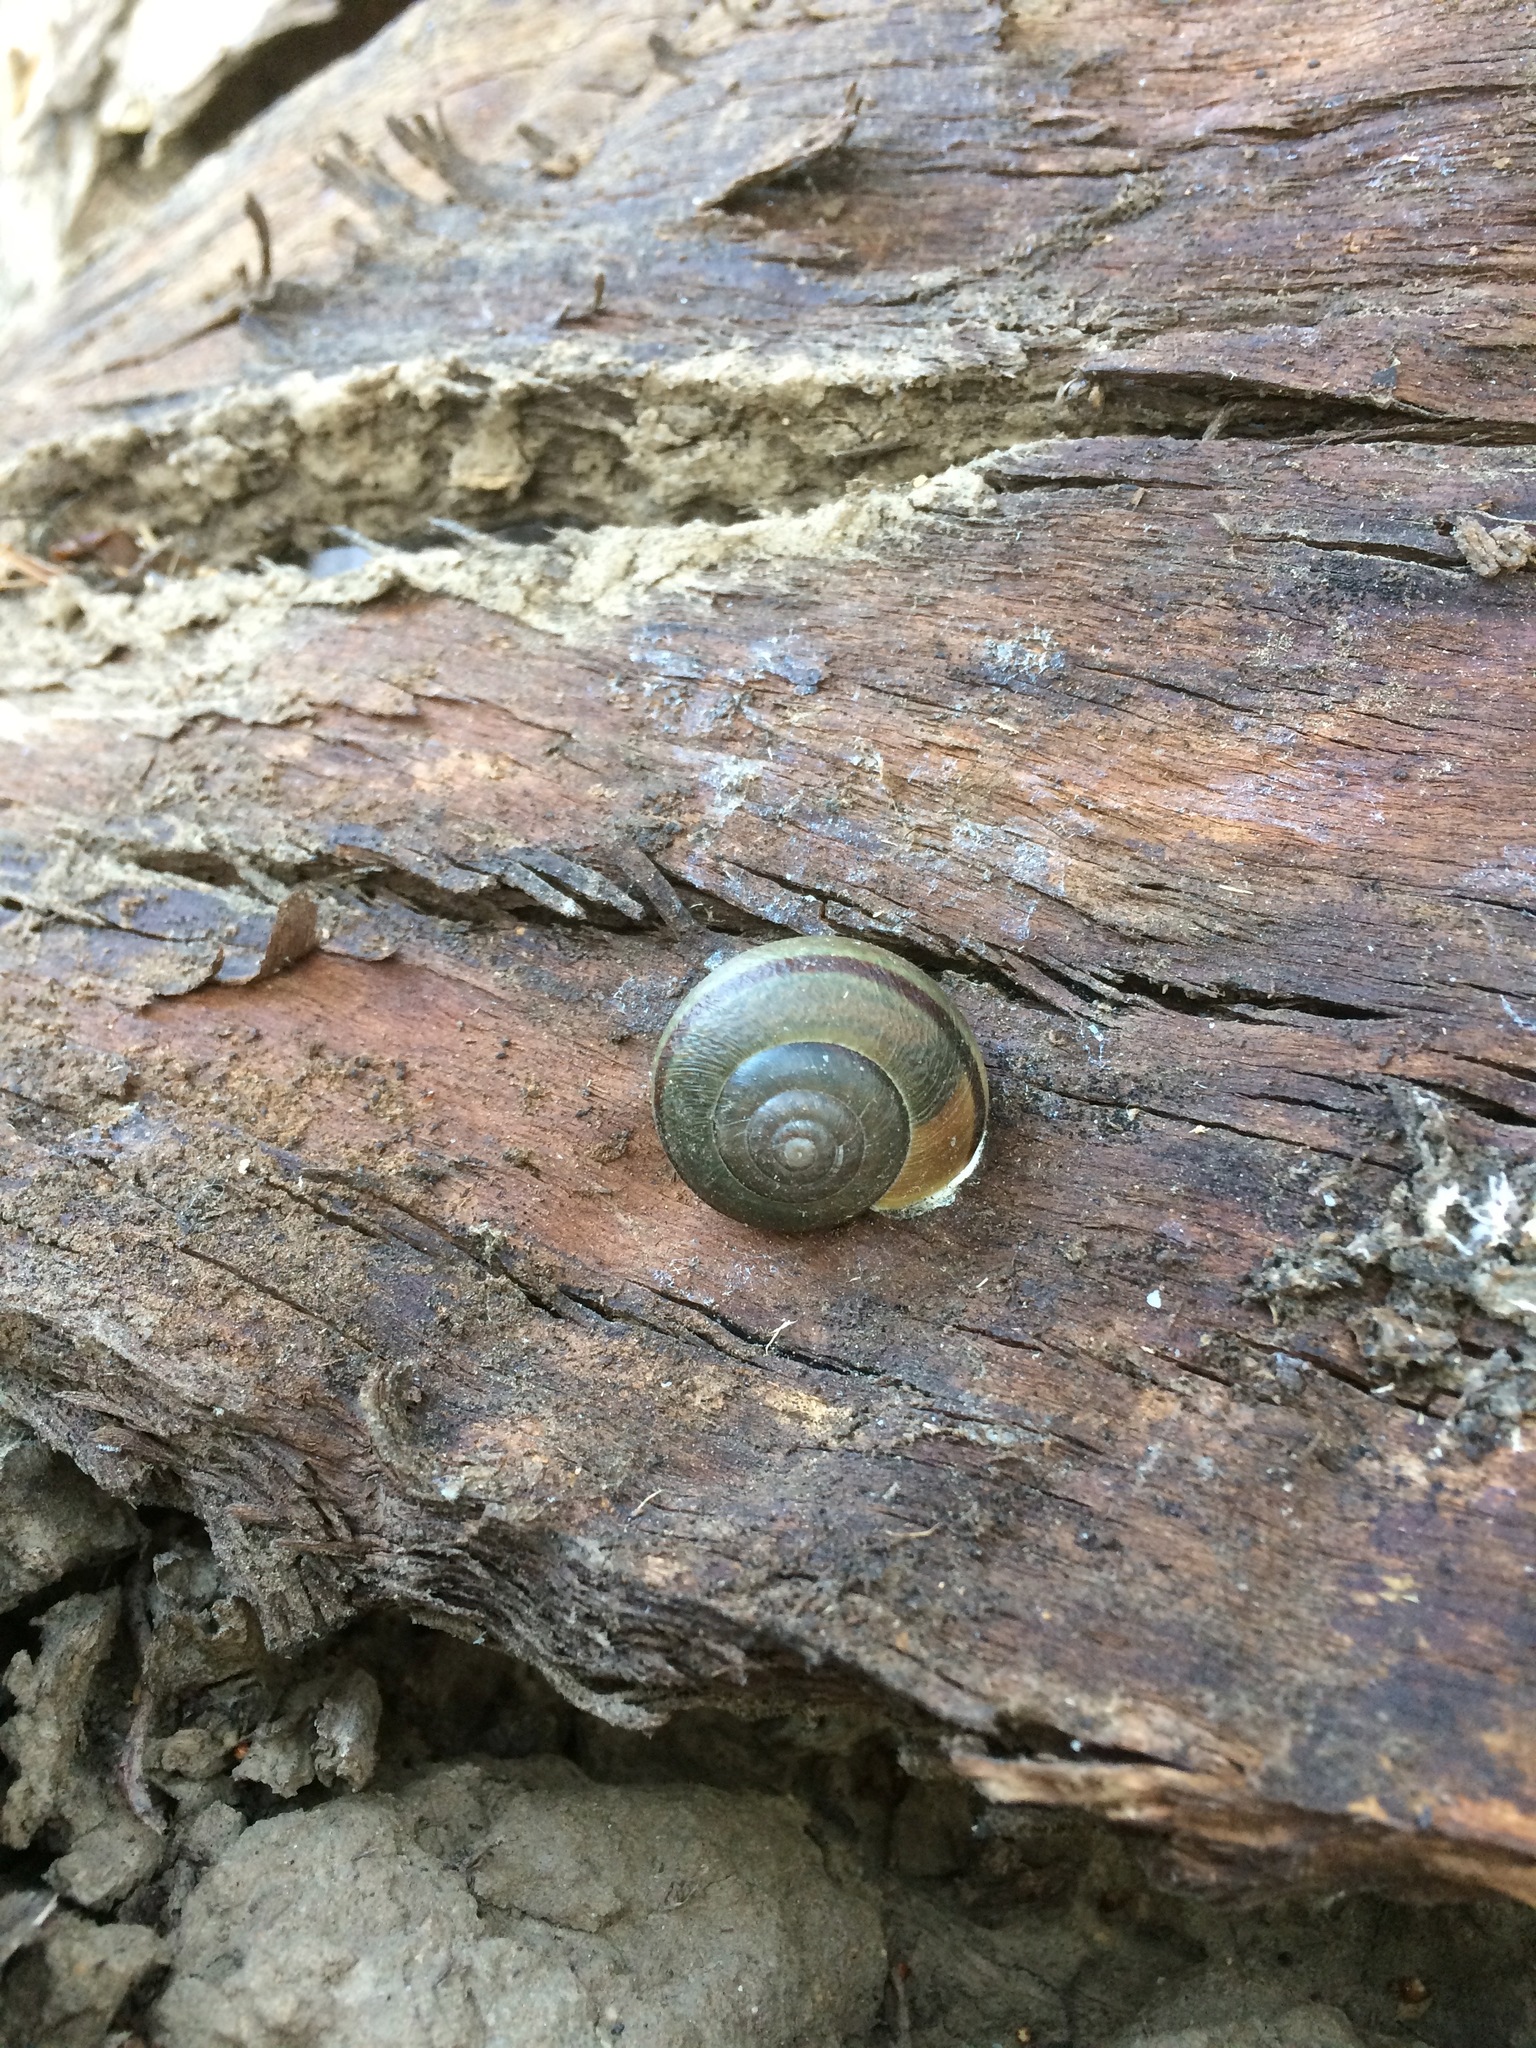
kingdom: Animalia
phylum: Mollusca
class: Gastropoda
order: Stylommatophora
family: Xanthonychidae
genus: Helminthoglypta
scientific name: Helminthoglypta tudiculata
